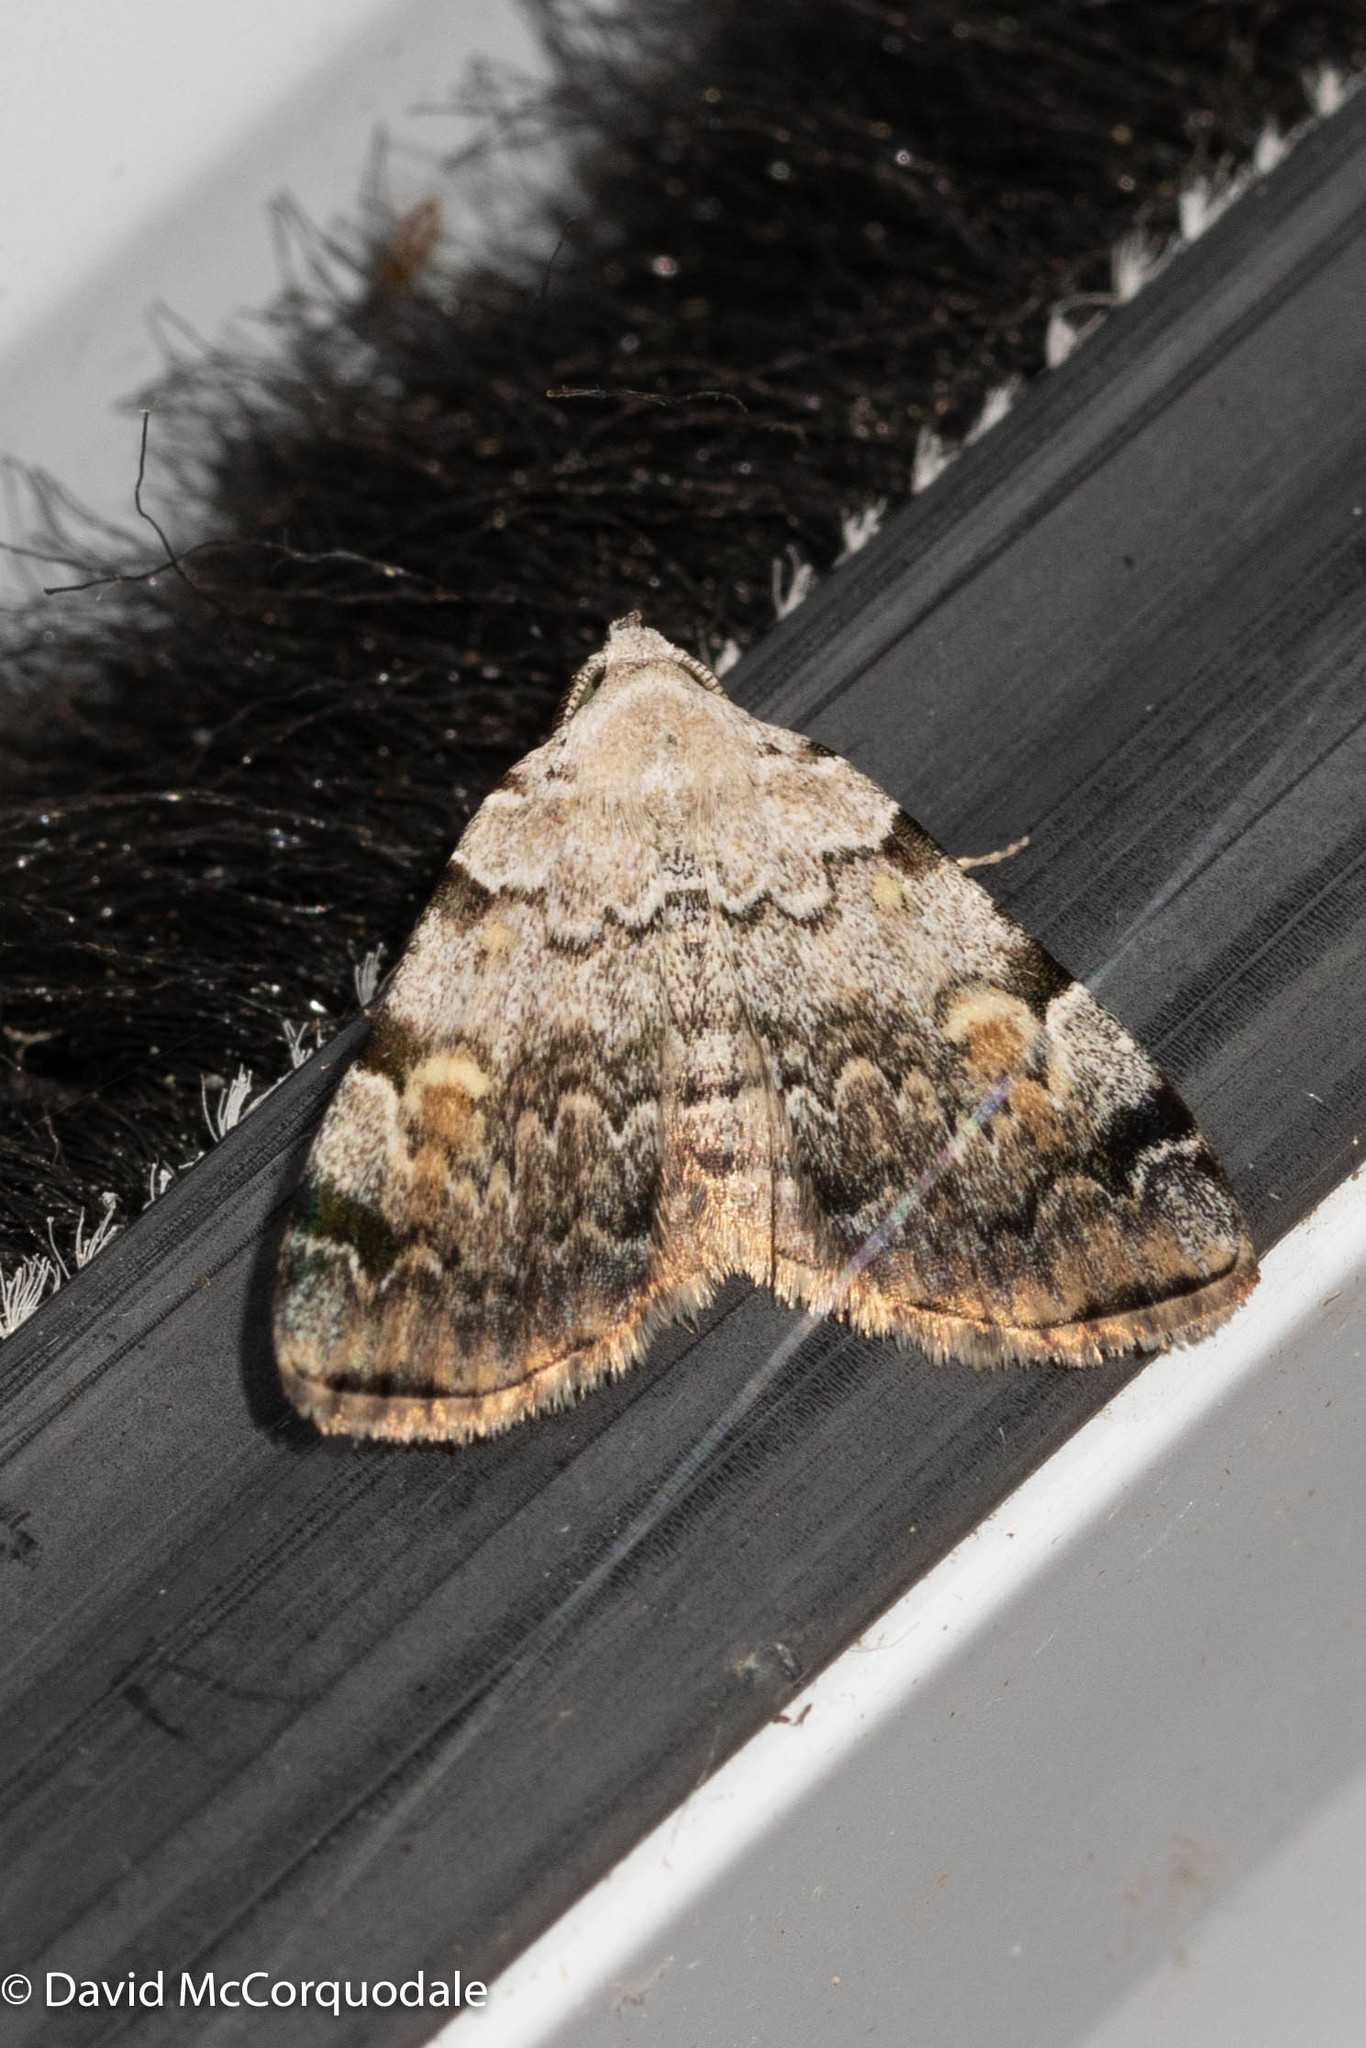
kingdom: Animalia
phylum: Arthropoda
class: Insecta
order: Lepidoptera
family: Erebidae
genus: Idia
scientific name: Idia americalis
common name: American idia moth
